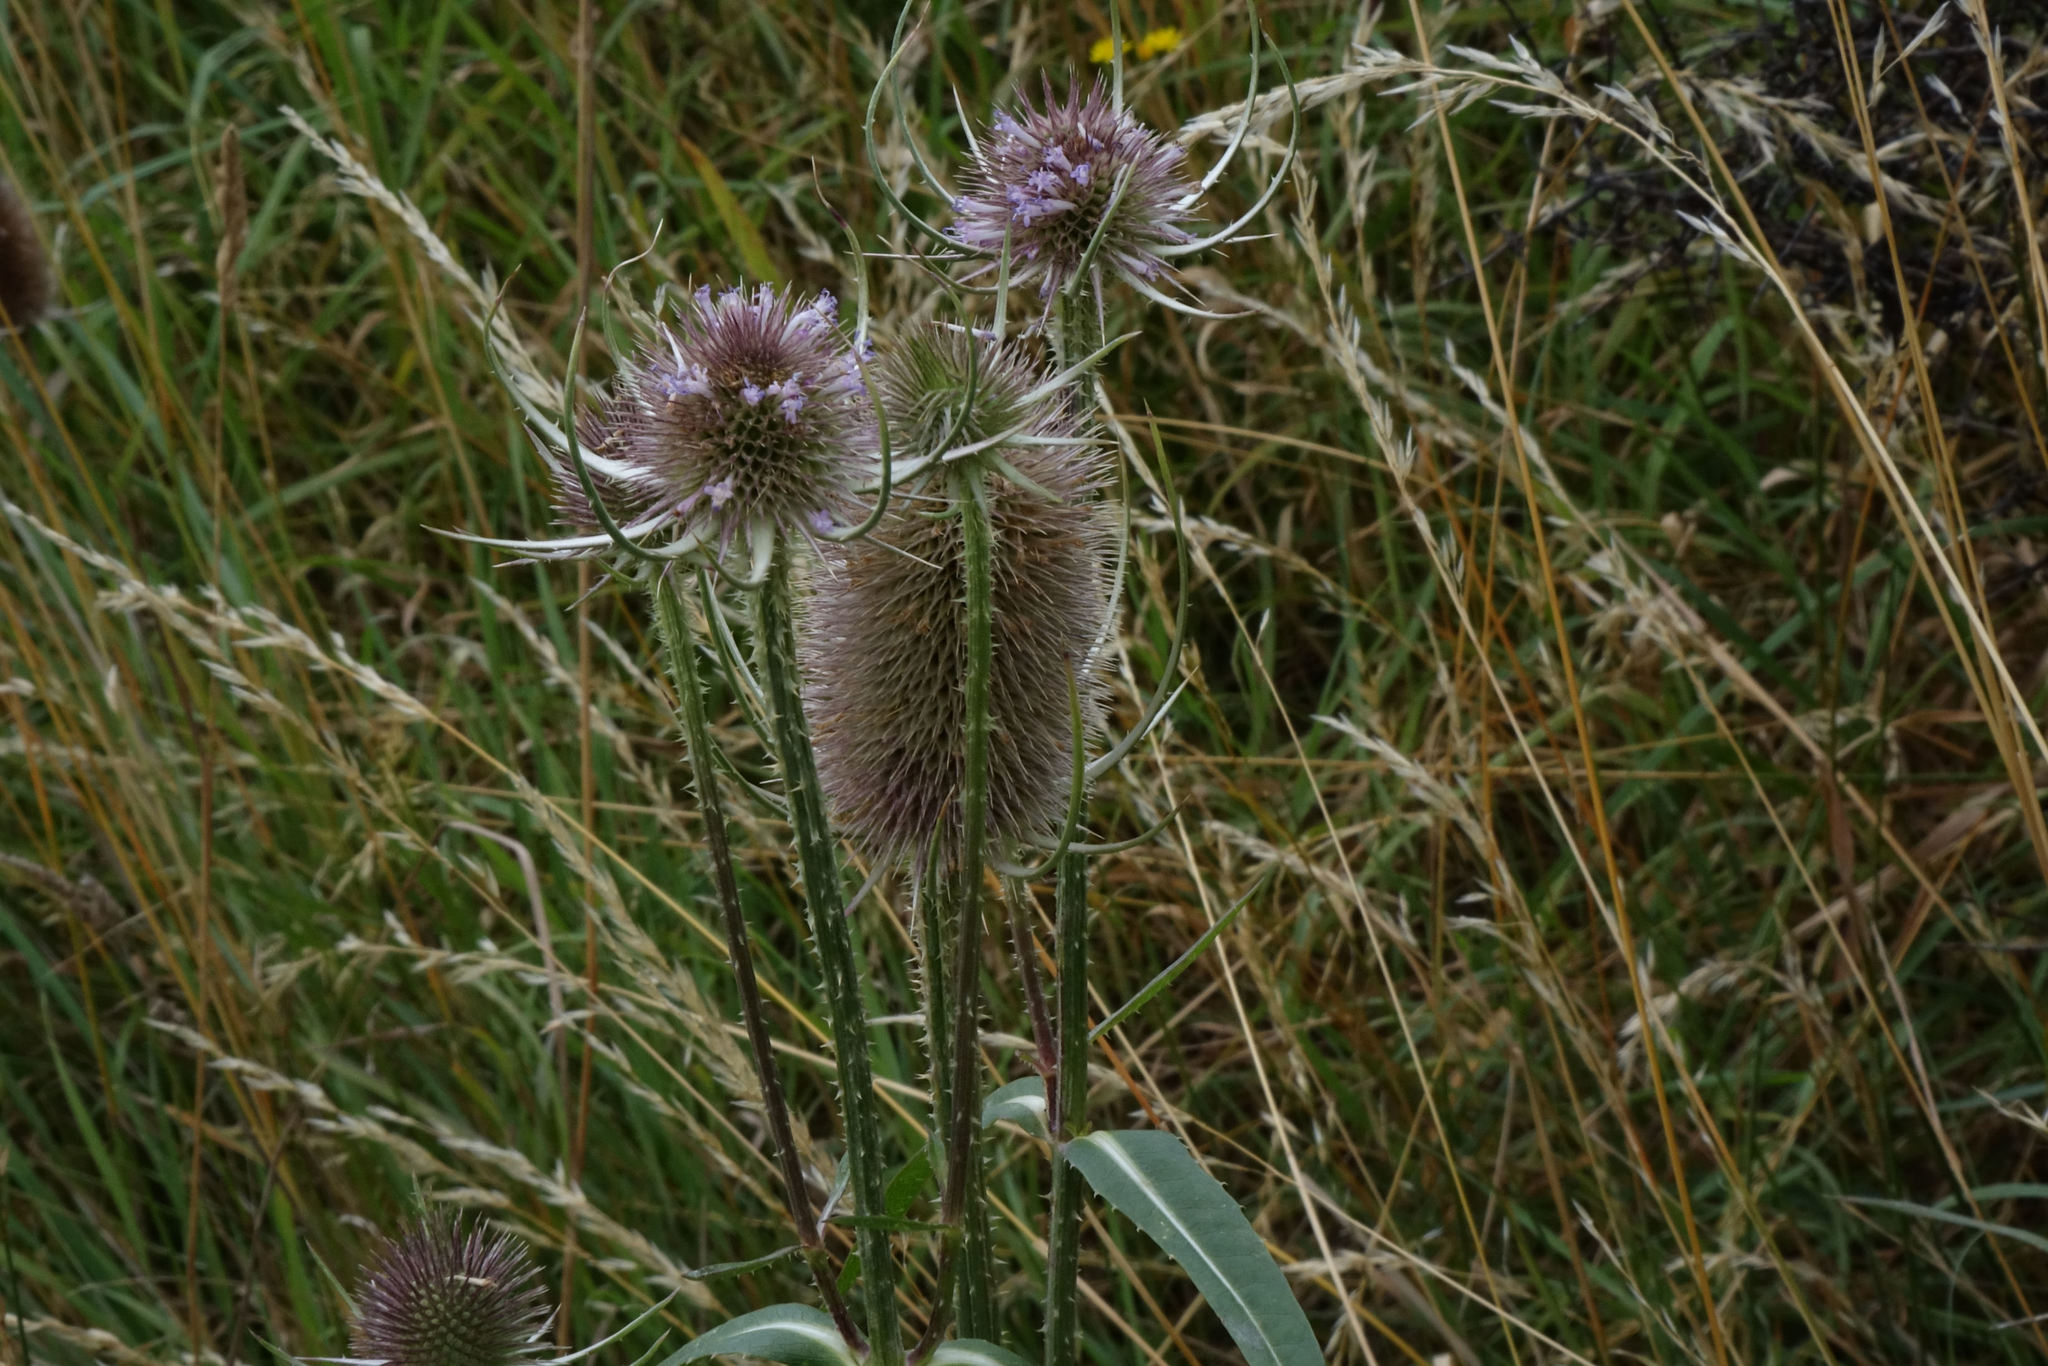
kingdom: Plantae
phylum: Tracheophyta
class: Magnoliopsida
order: Dipsacales
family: Caprifoliaceae
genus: Dipsacus
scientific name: Dipsacus fullonum
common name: Teasel
